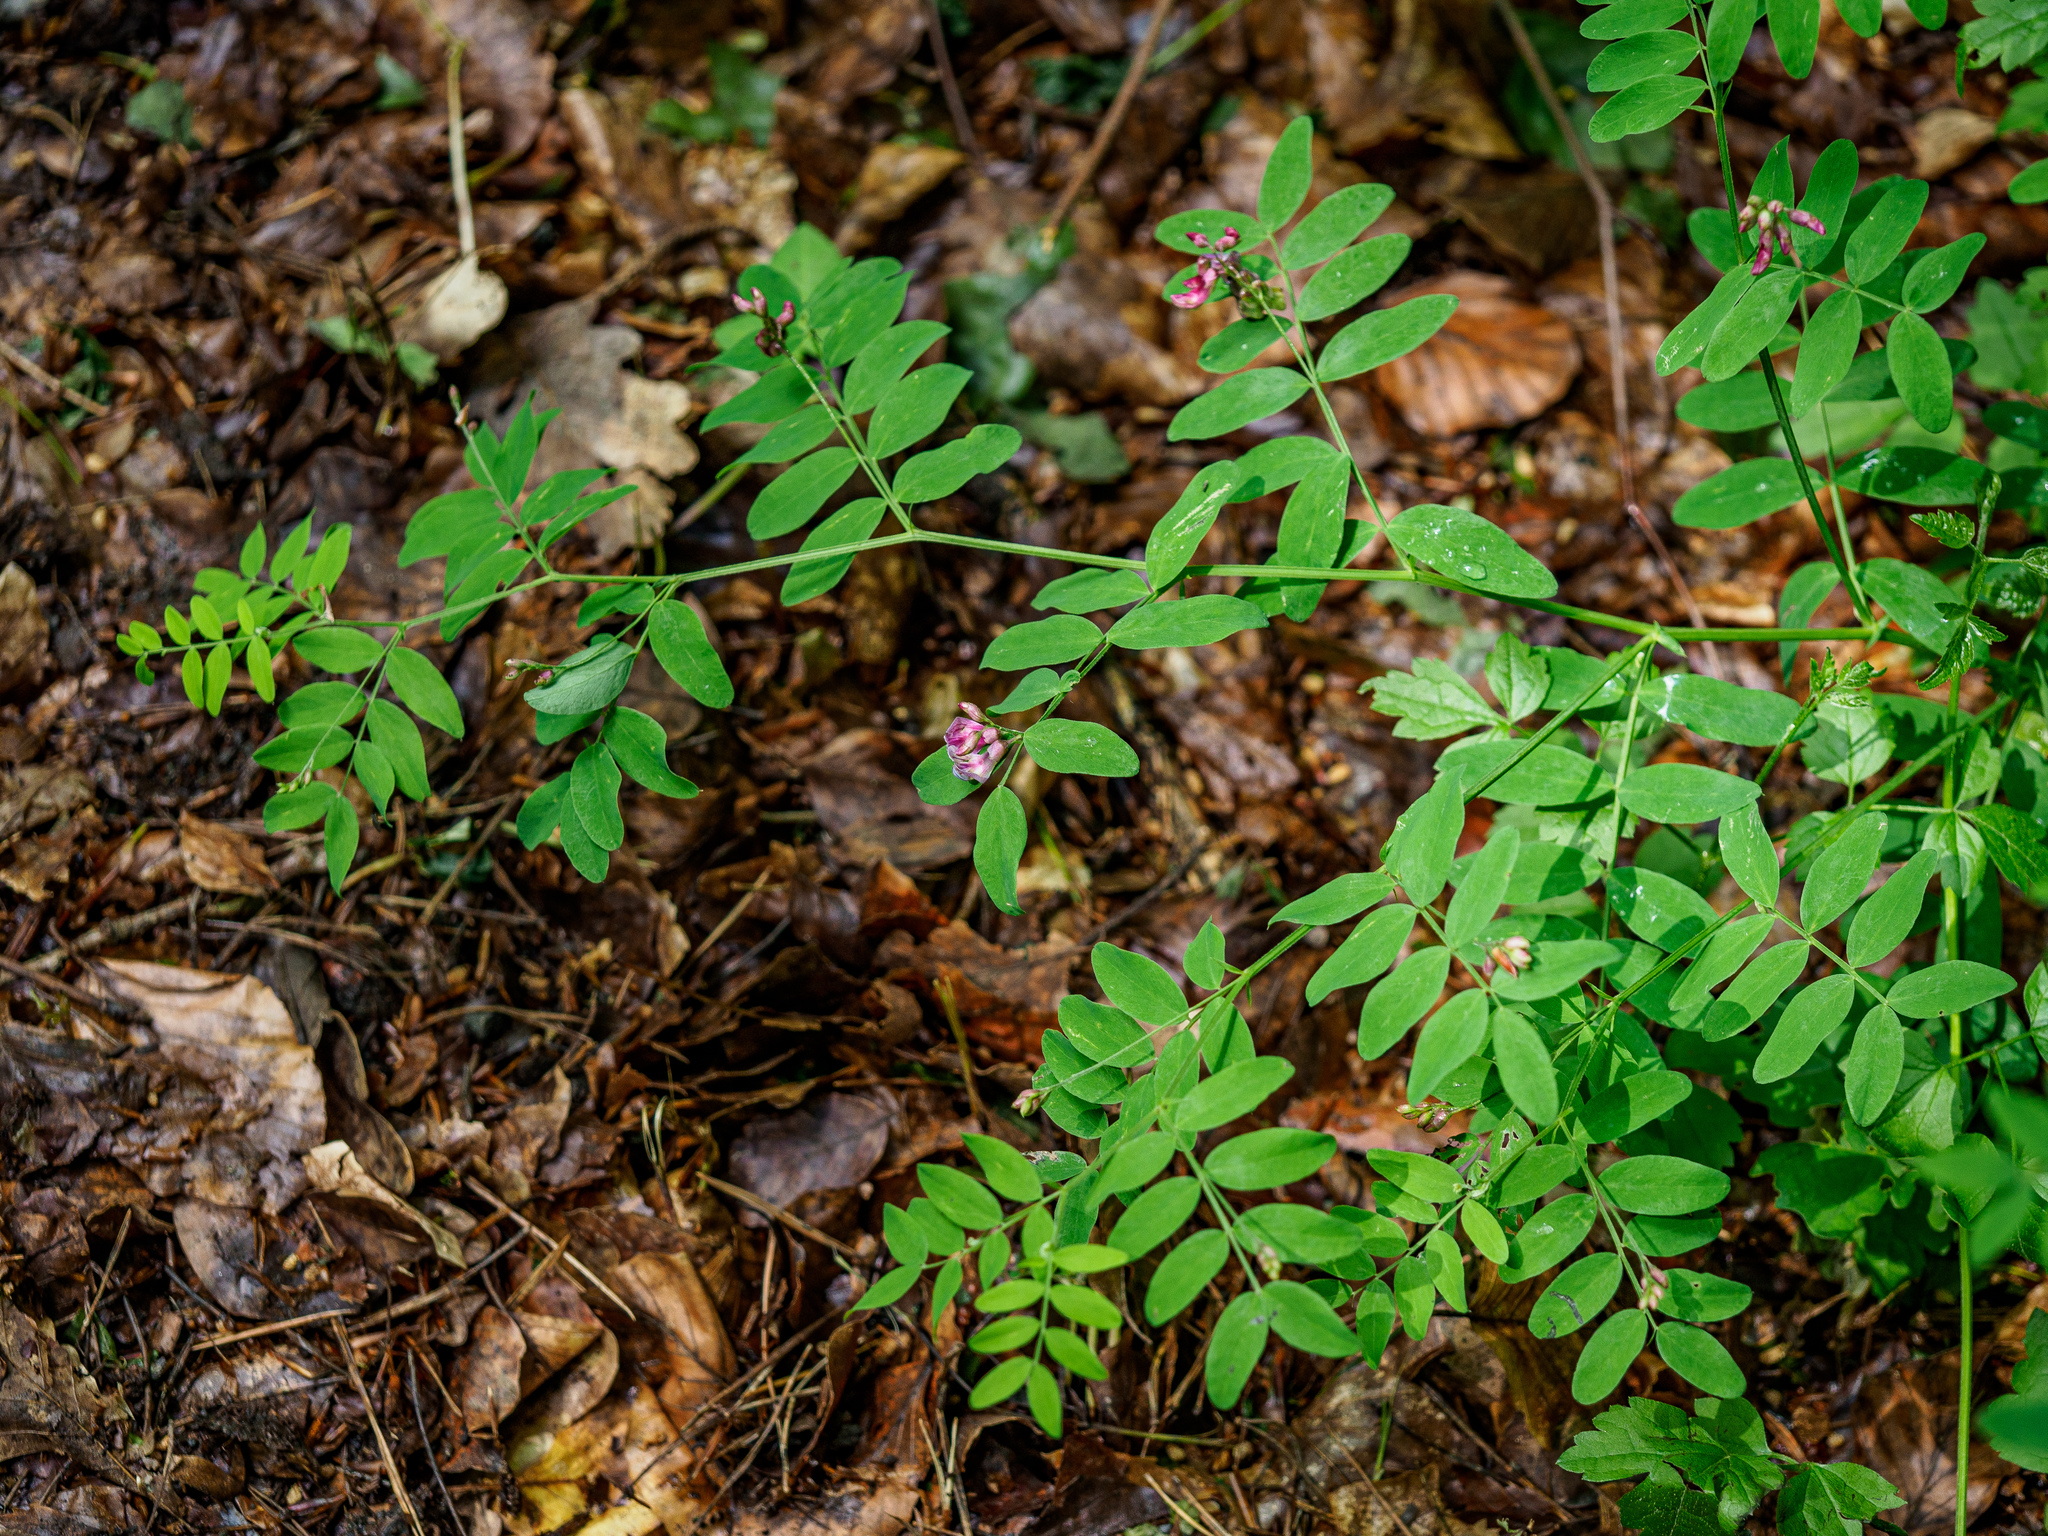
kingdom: Plantae
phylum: Tracheophyta
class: Magnoliopsida
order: Fabales
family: Fabaceae
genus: Lathyrus
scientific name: Lathyrus niger
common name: Black pea
